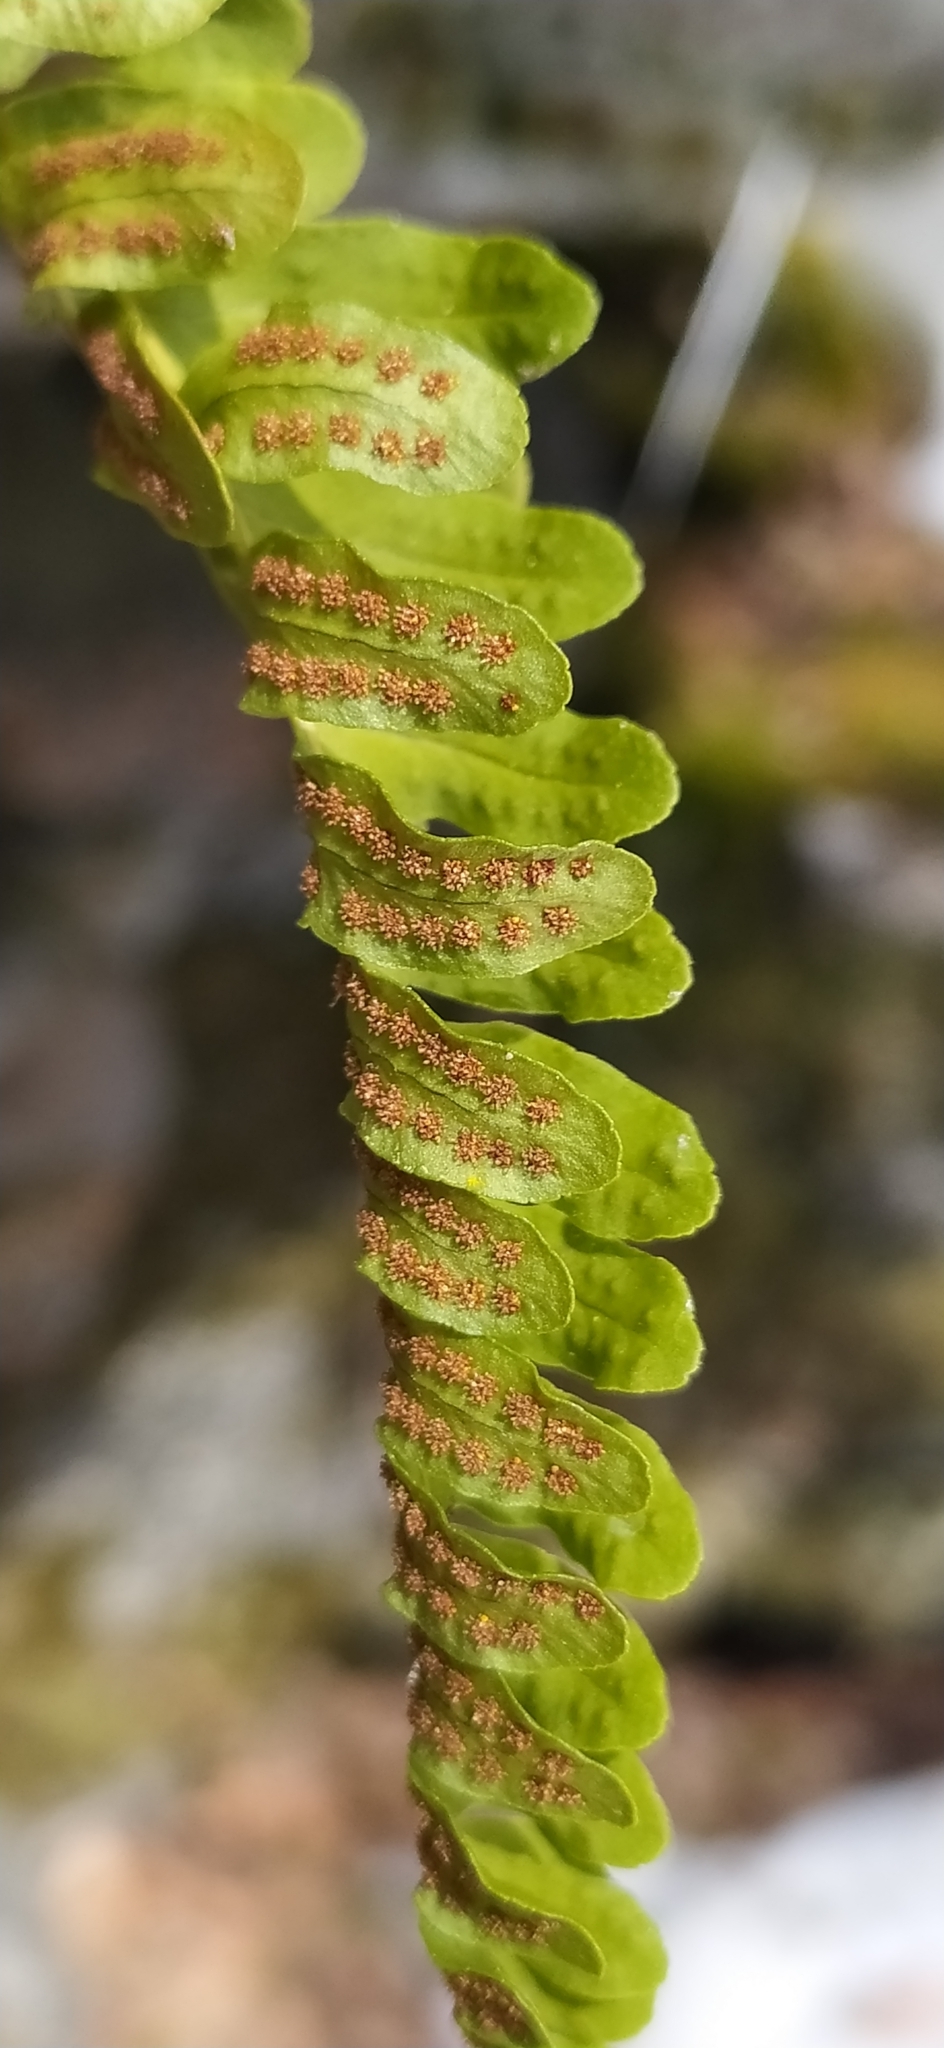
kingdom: Plantae
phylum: Tracheophyta
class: Polypodiopsida
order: Polypodiales
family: Polypodiaceae
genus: Polypodium
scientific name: Polypodium vulgare
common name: Common polypody
